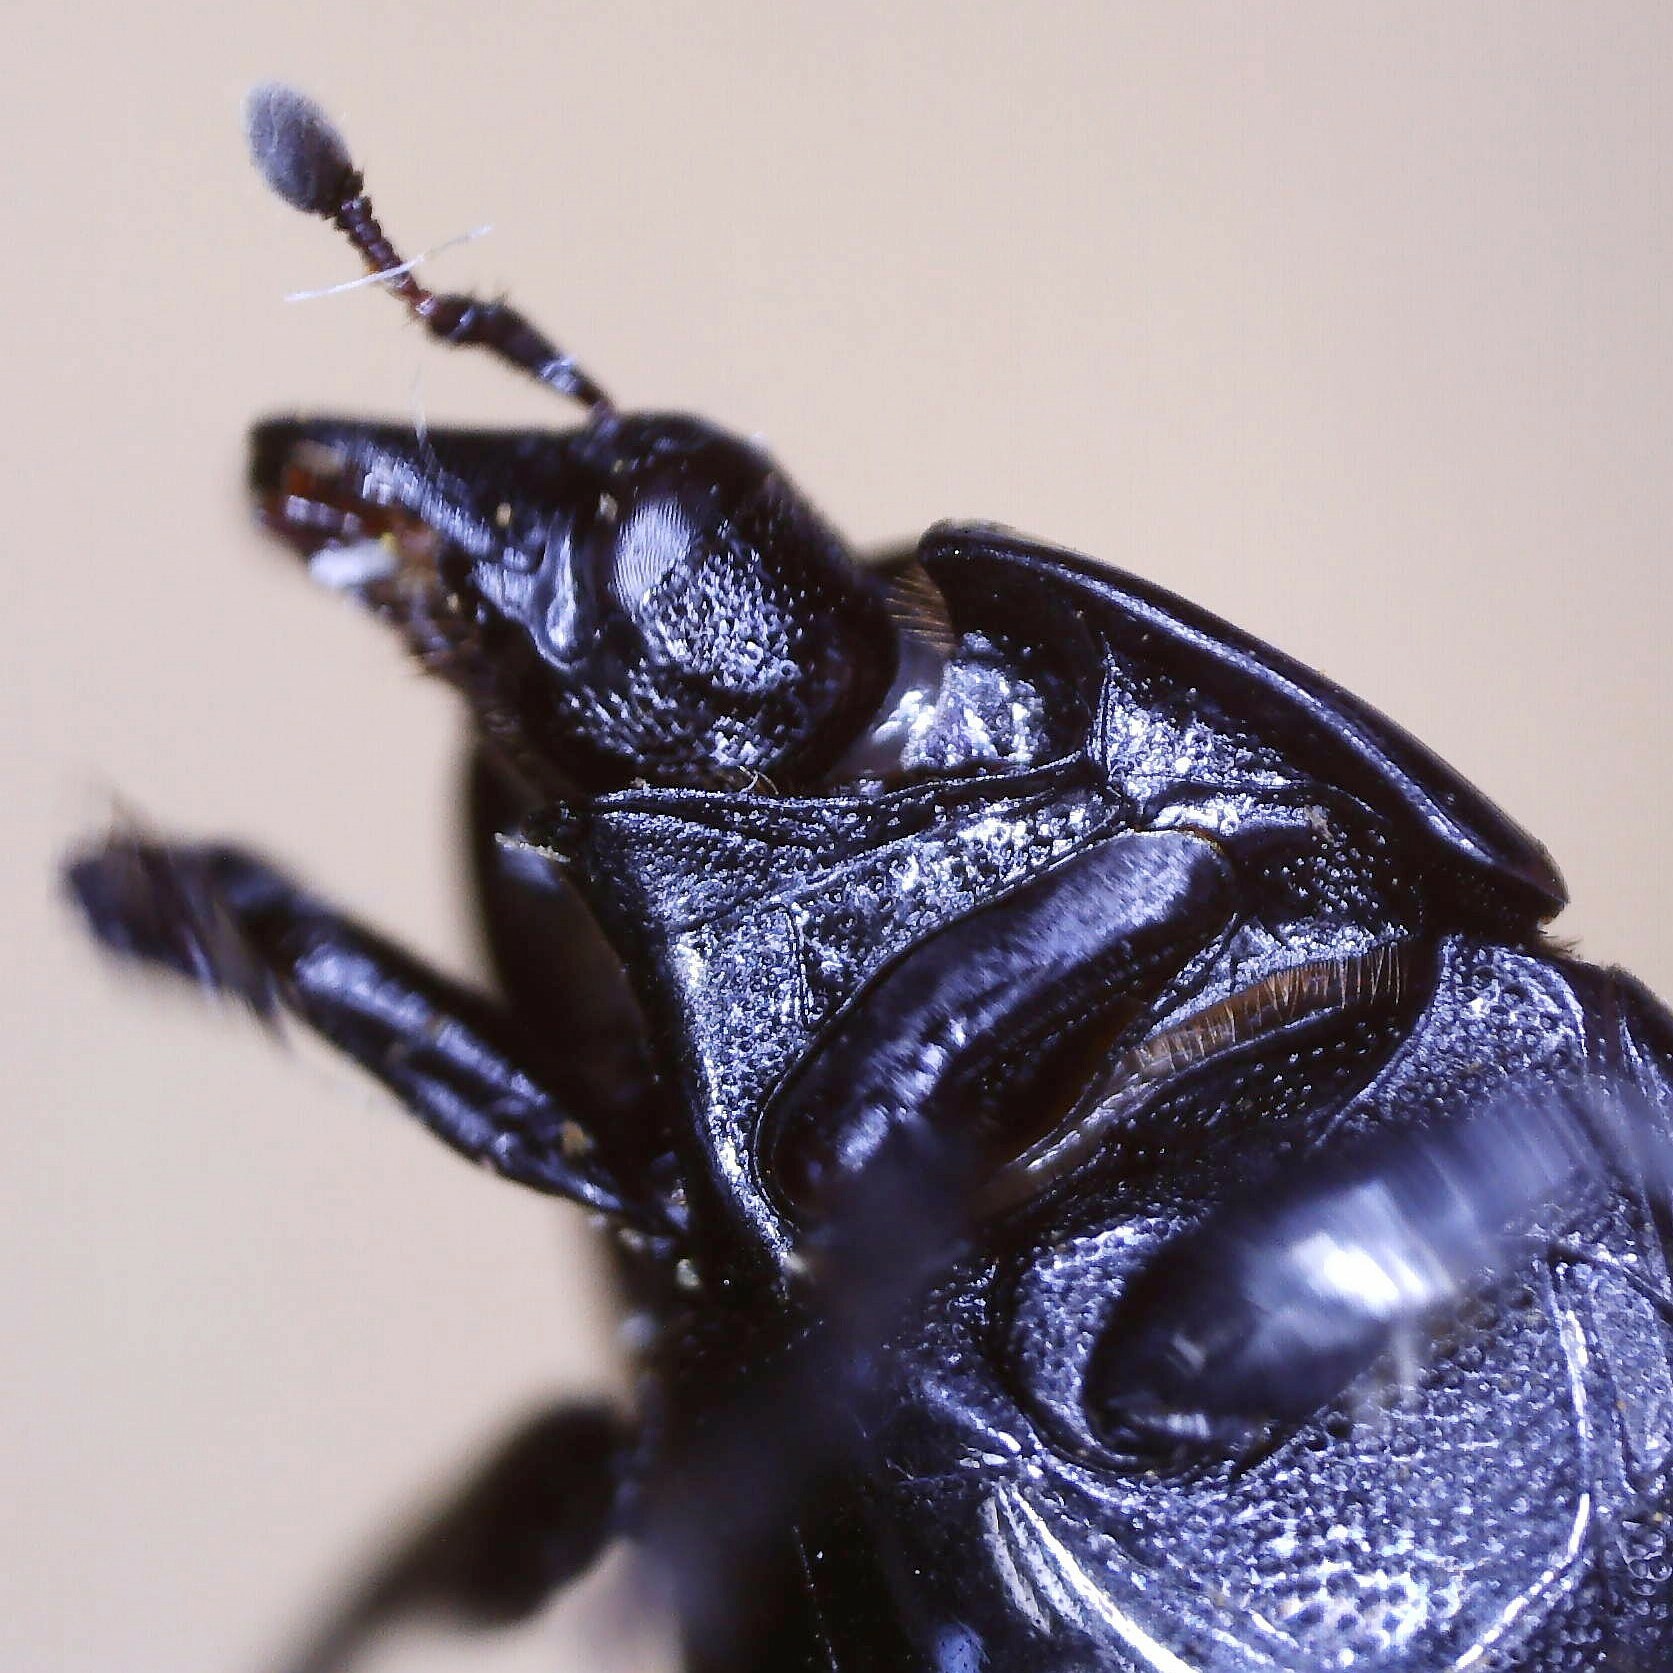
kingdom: Animalia
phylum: Arthropoda
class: Insecta
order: Coleoptera
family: Histeridae
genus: Margarinotus
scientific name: Margarinotus brunneus
